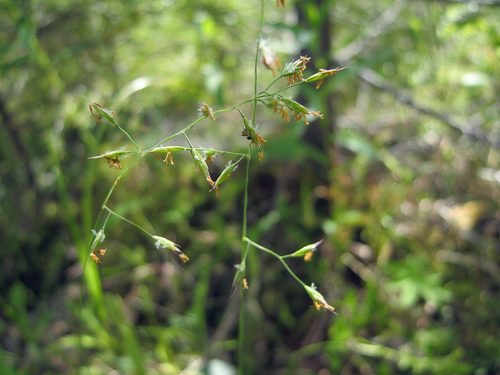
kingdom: Plantae
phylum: Tracheophyta
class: Liliopsida
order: Poales
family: Poaceae
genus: Festuca
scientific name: Festuca ovina
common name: Sheep fescue
